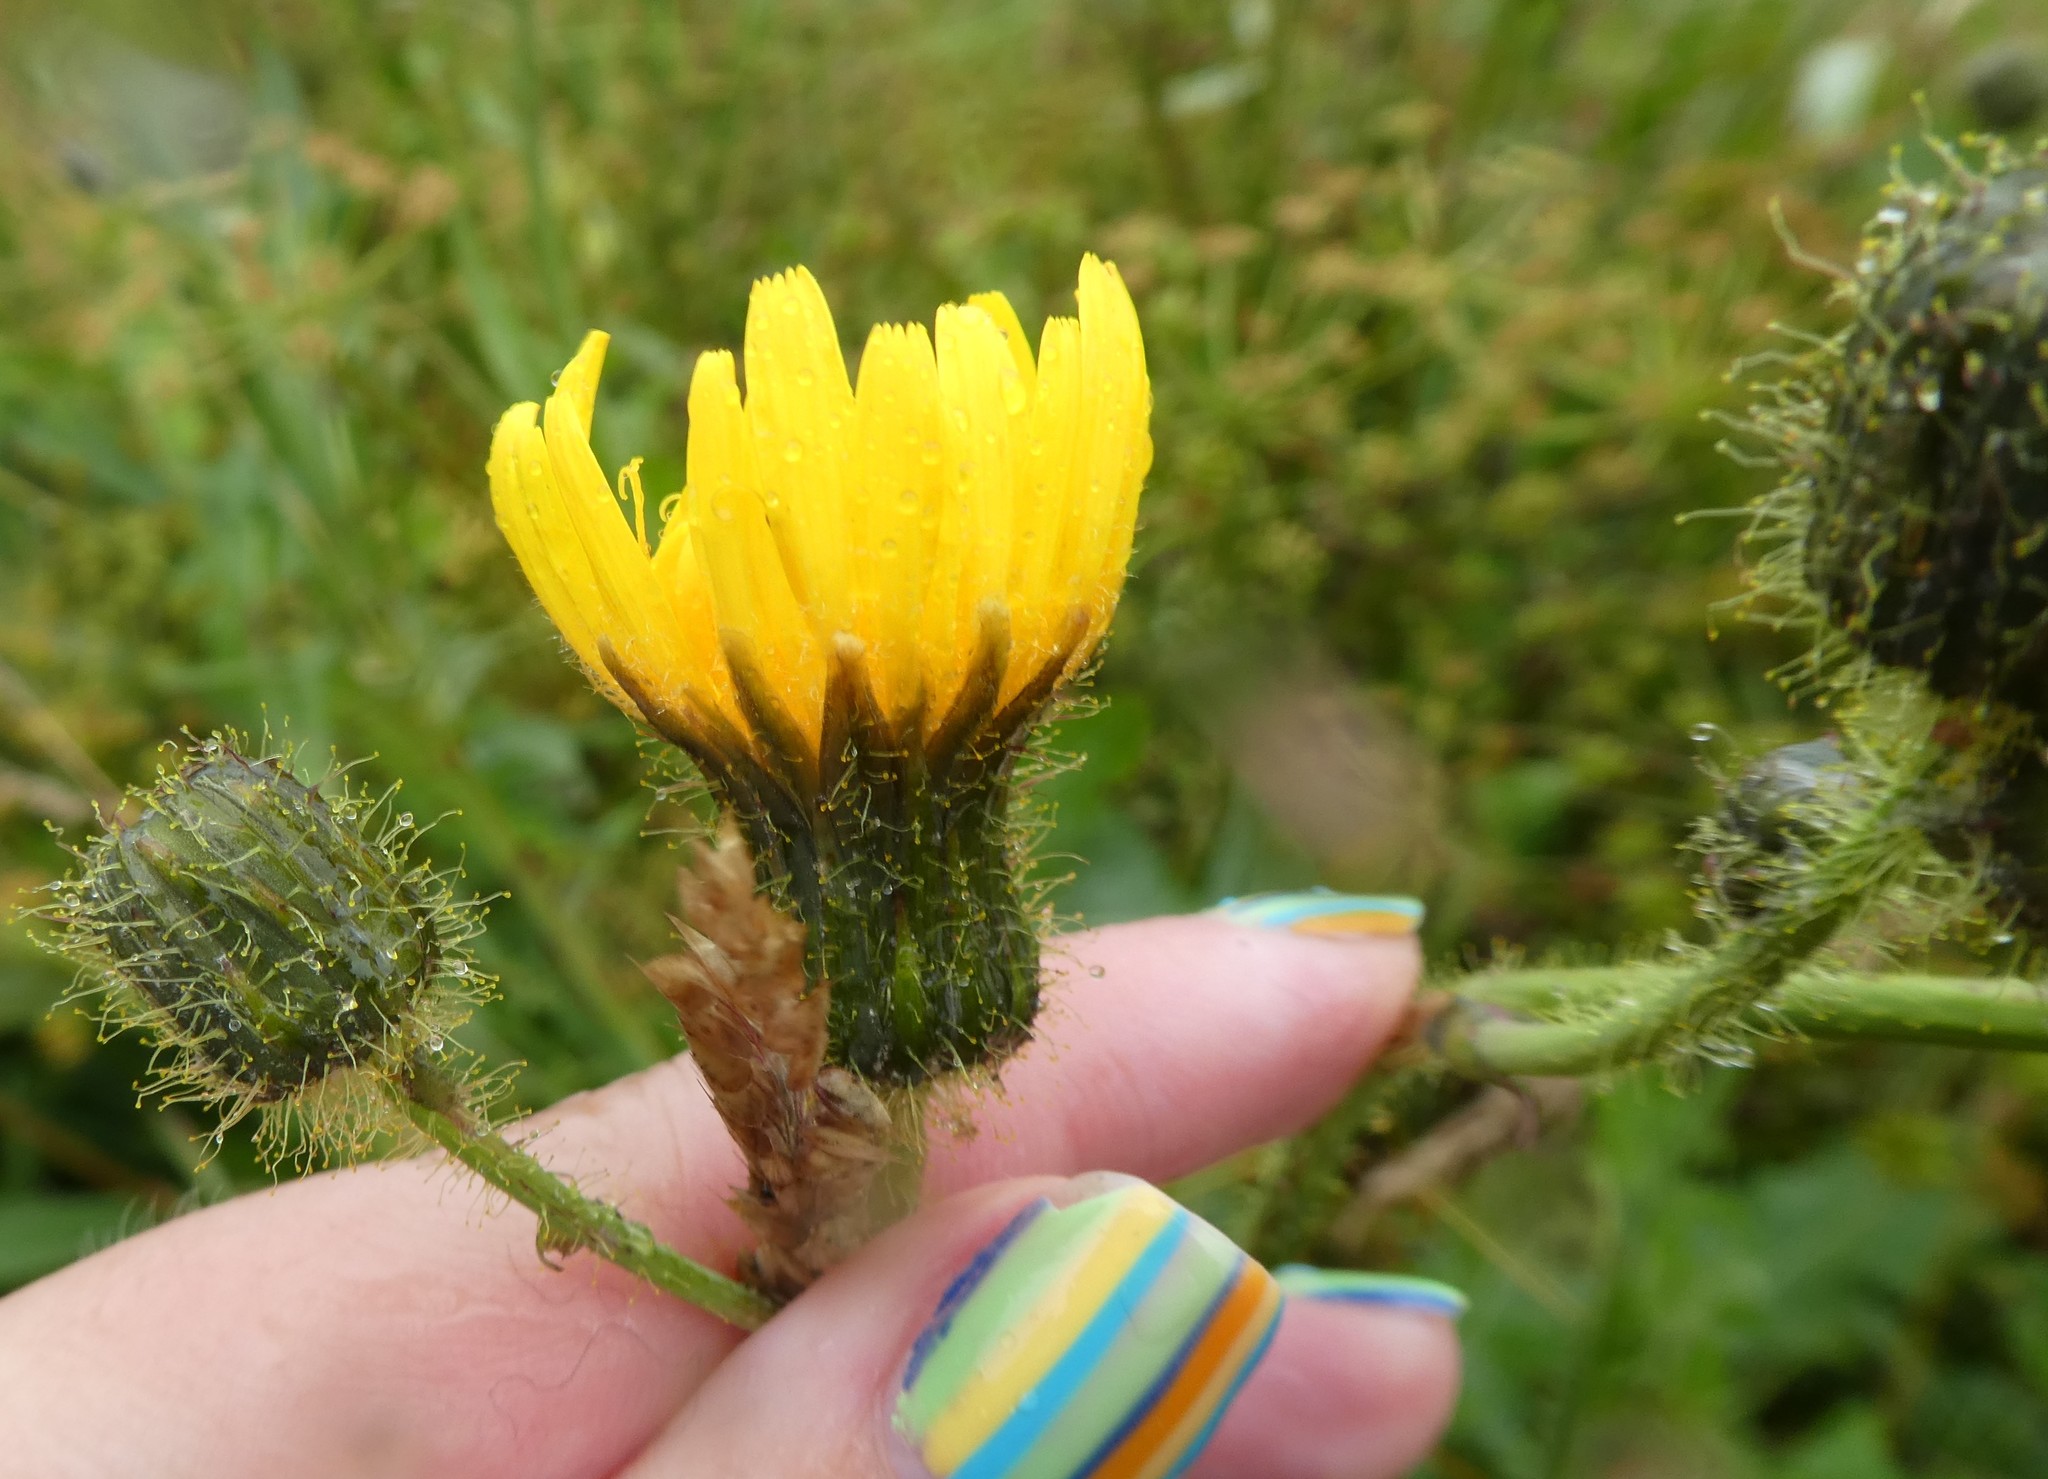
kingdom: Plantae
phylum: Tracheophyta
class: Magnoliopsida
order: Asterales
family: Asteraceae
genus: Sonchus
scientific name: Sonchus arvensis
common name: Perennial sow-thistle
